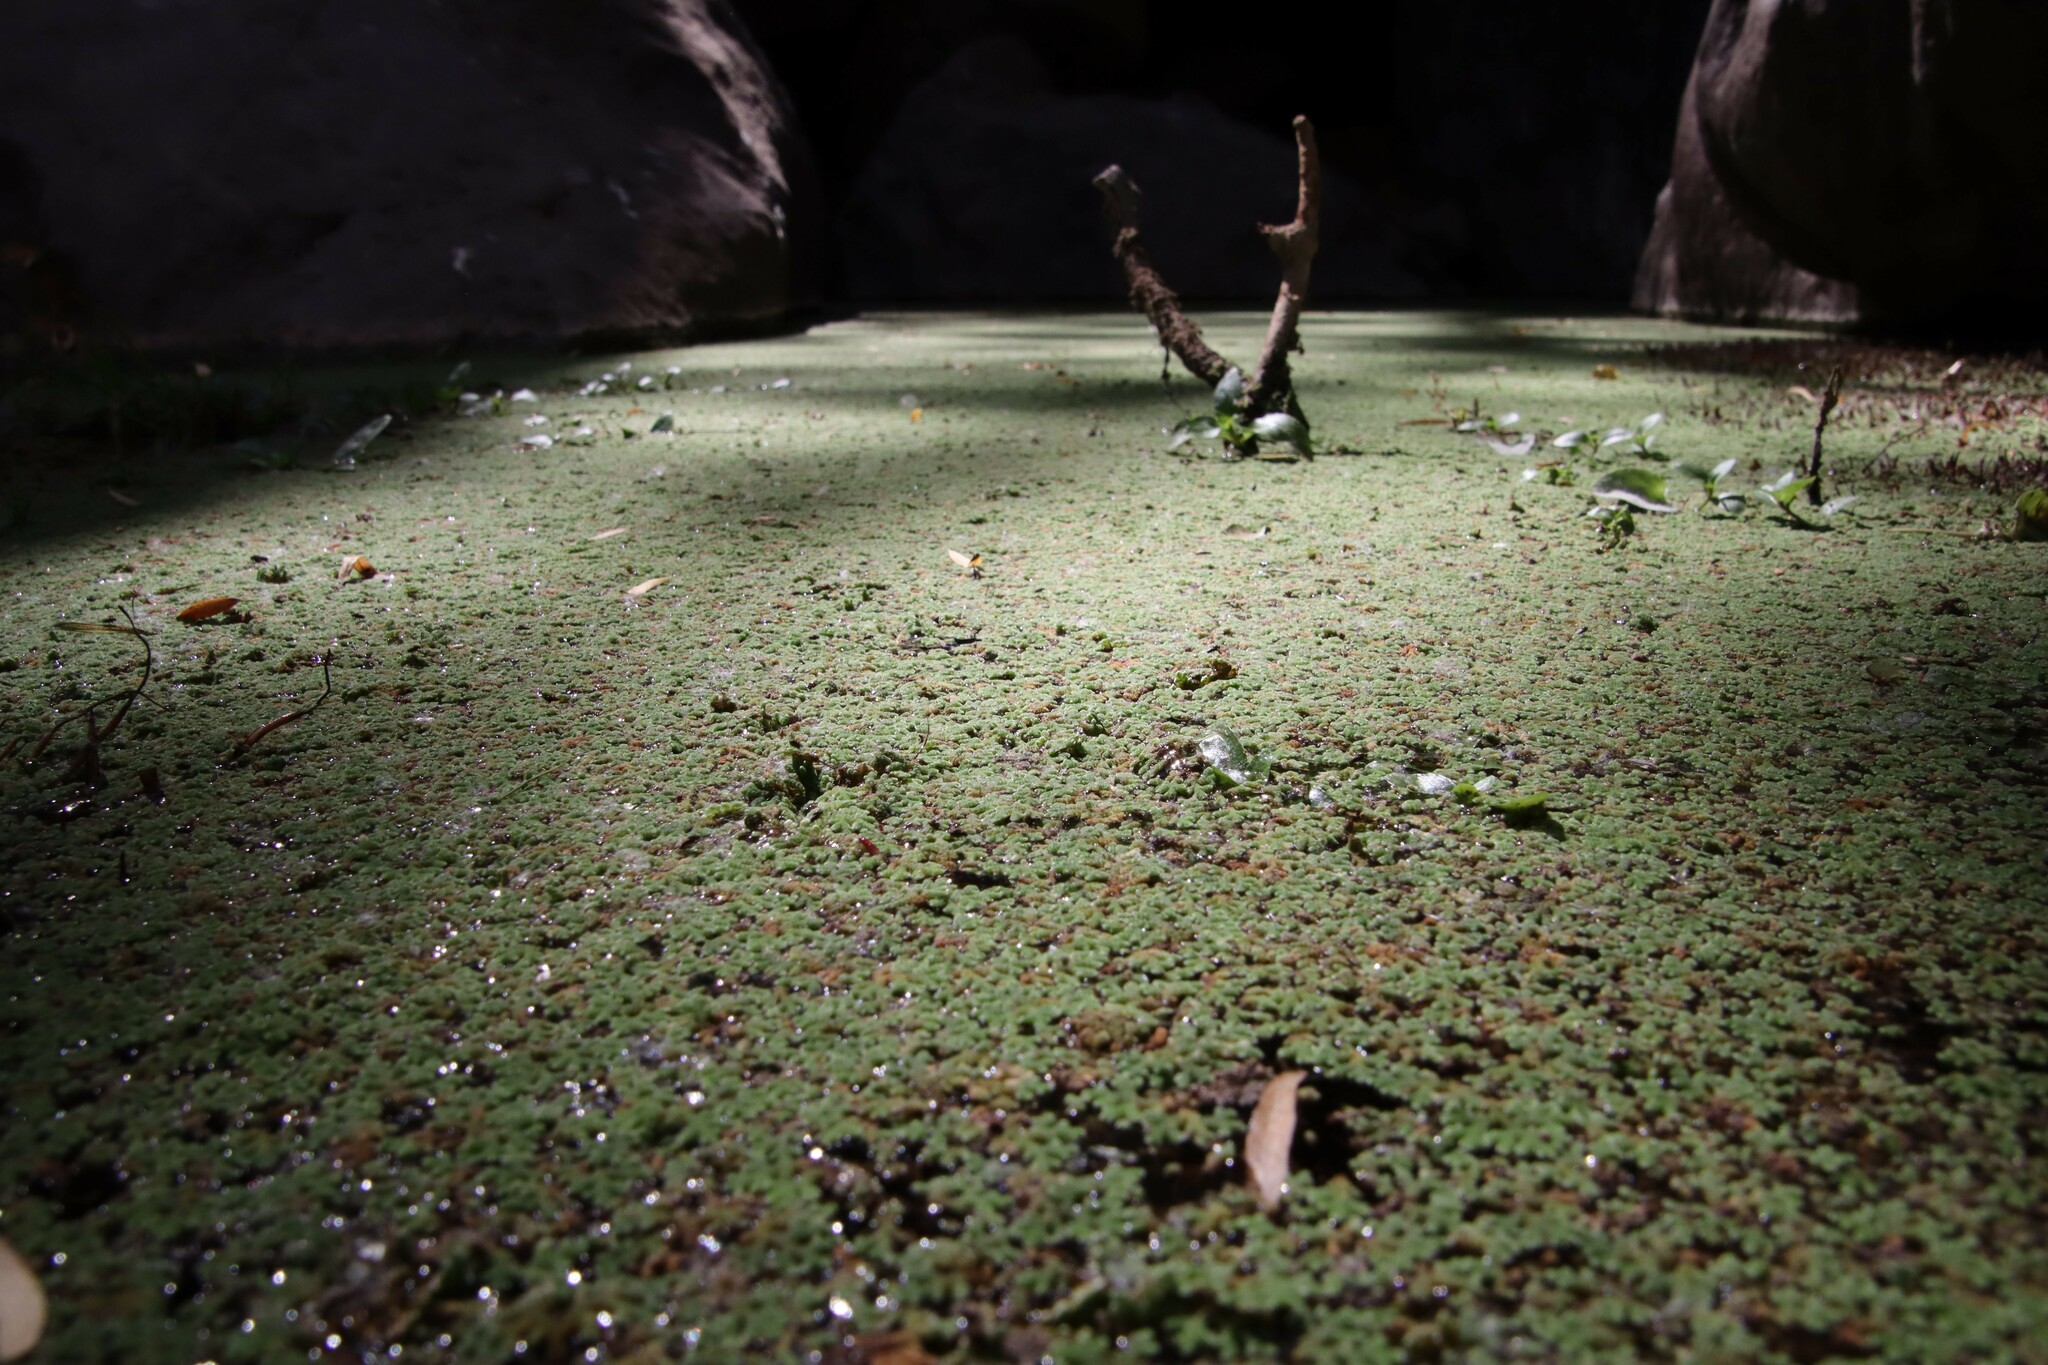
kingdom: Plantae
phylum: Tracheophyta
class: Polypodiopsida
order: Salviniales
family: Salviniaceae
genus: Azolla
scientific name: Azolla filiculoides
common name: Water fern
